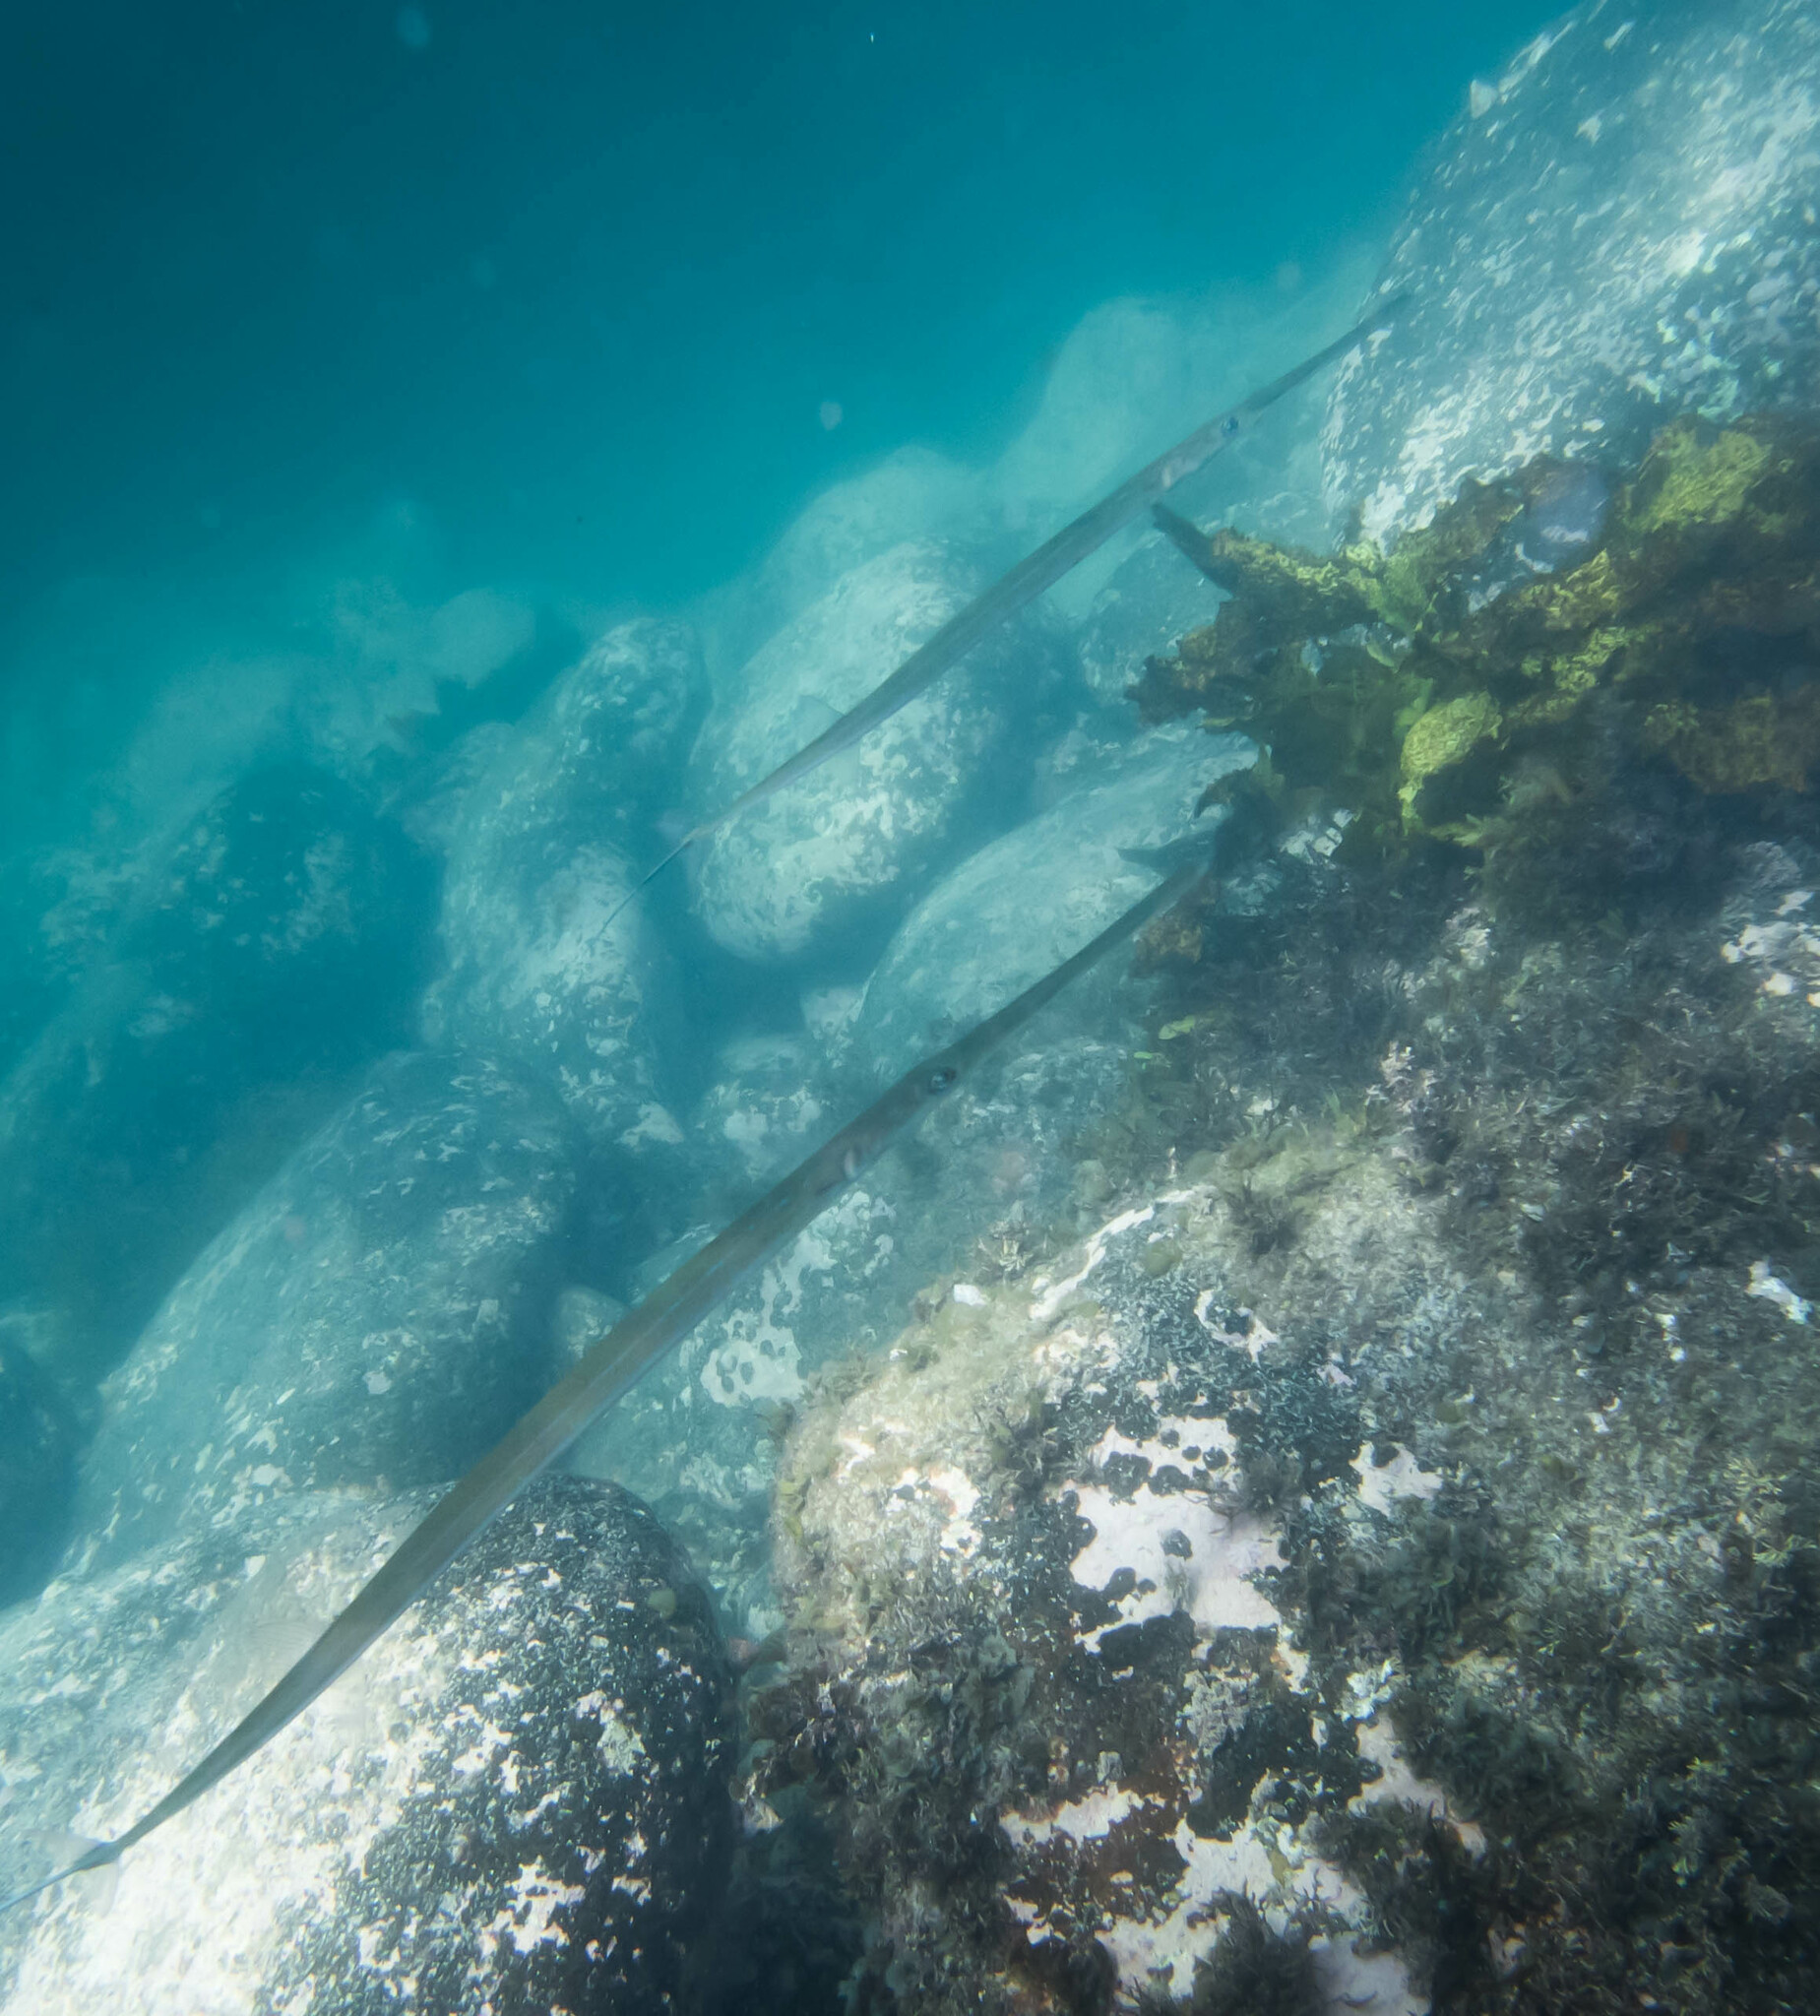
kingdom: Animalia
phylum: Chordata
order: Syngnathiformes
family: Fistulariidae
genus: Fistularia
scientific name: Fistularia commersonii
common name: Bluespotted cornetfish
